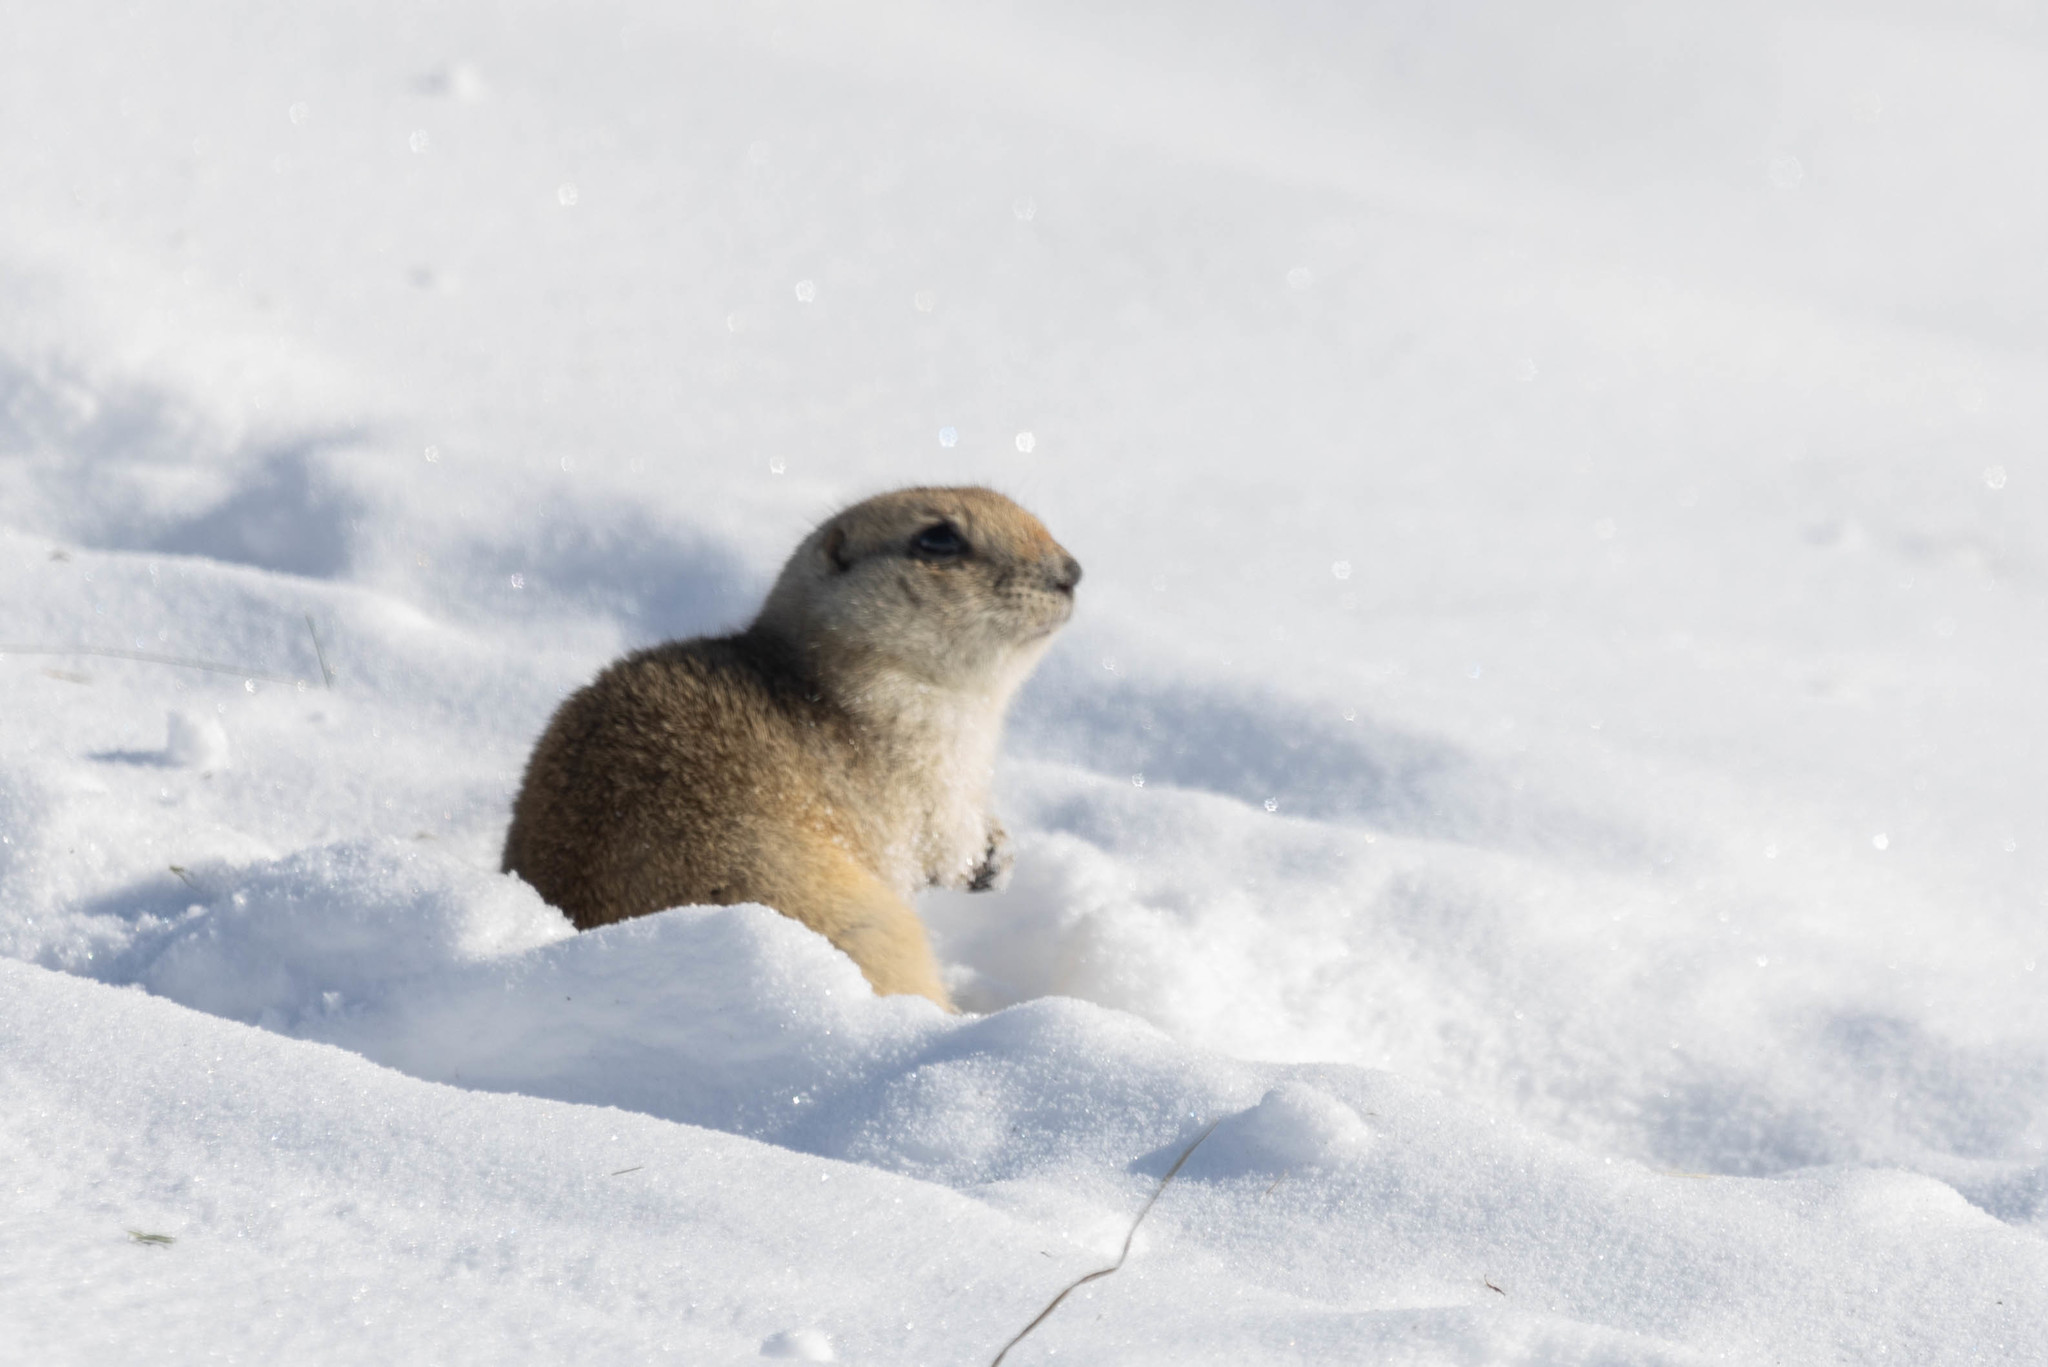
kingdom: Animalia
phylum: Chordata
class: Mammalia
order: Rodentia
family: Sciuridae
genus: Urocitellus
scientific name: Urocitellus richardsonii
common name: Richardson's ground squirrel
